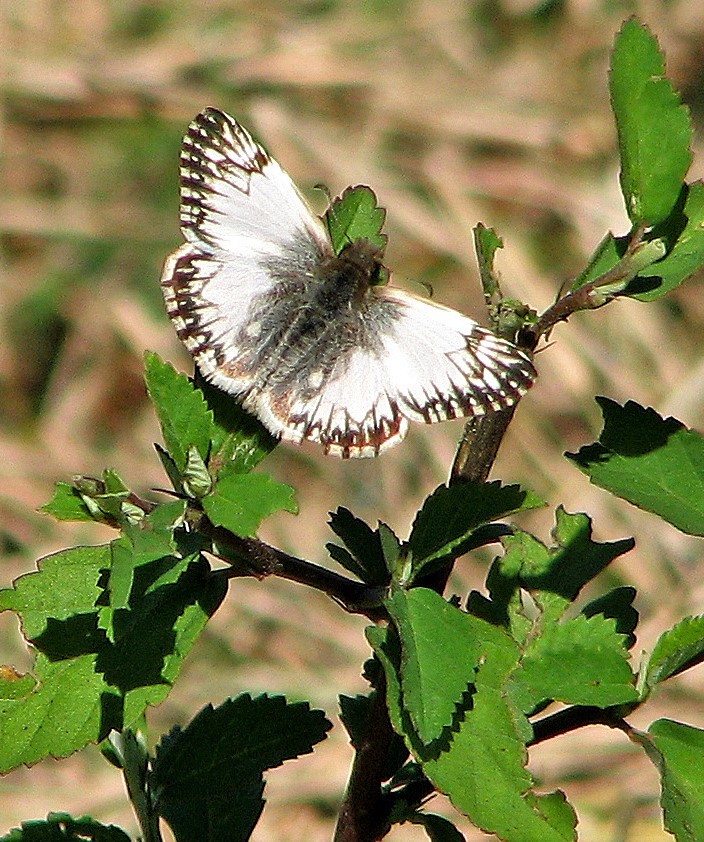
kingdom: Animalia
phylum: Arthropoda
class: Insecta
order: Lepidoptera
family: Hesperiidae
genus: Heliopetes
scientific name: Heliopetes omrina
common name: Stained white-skipper
